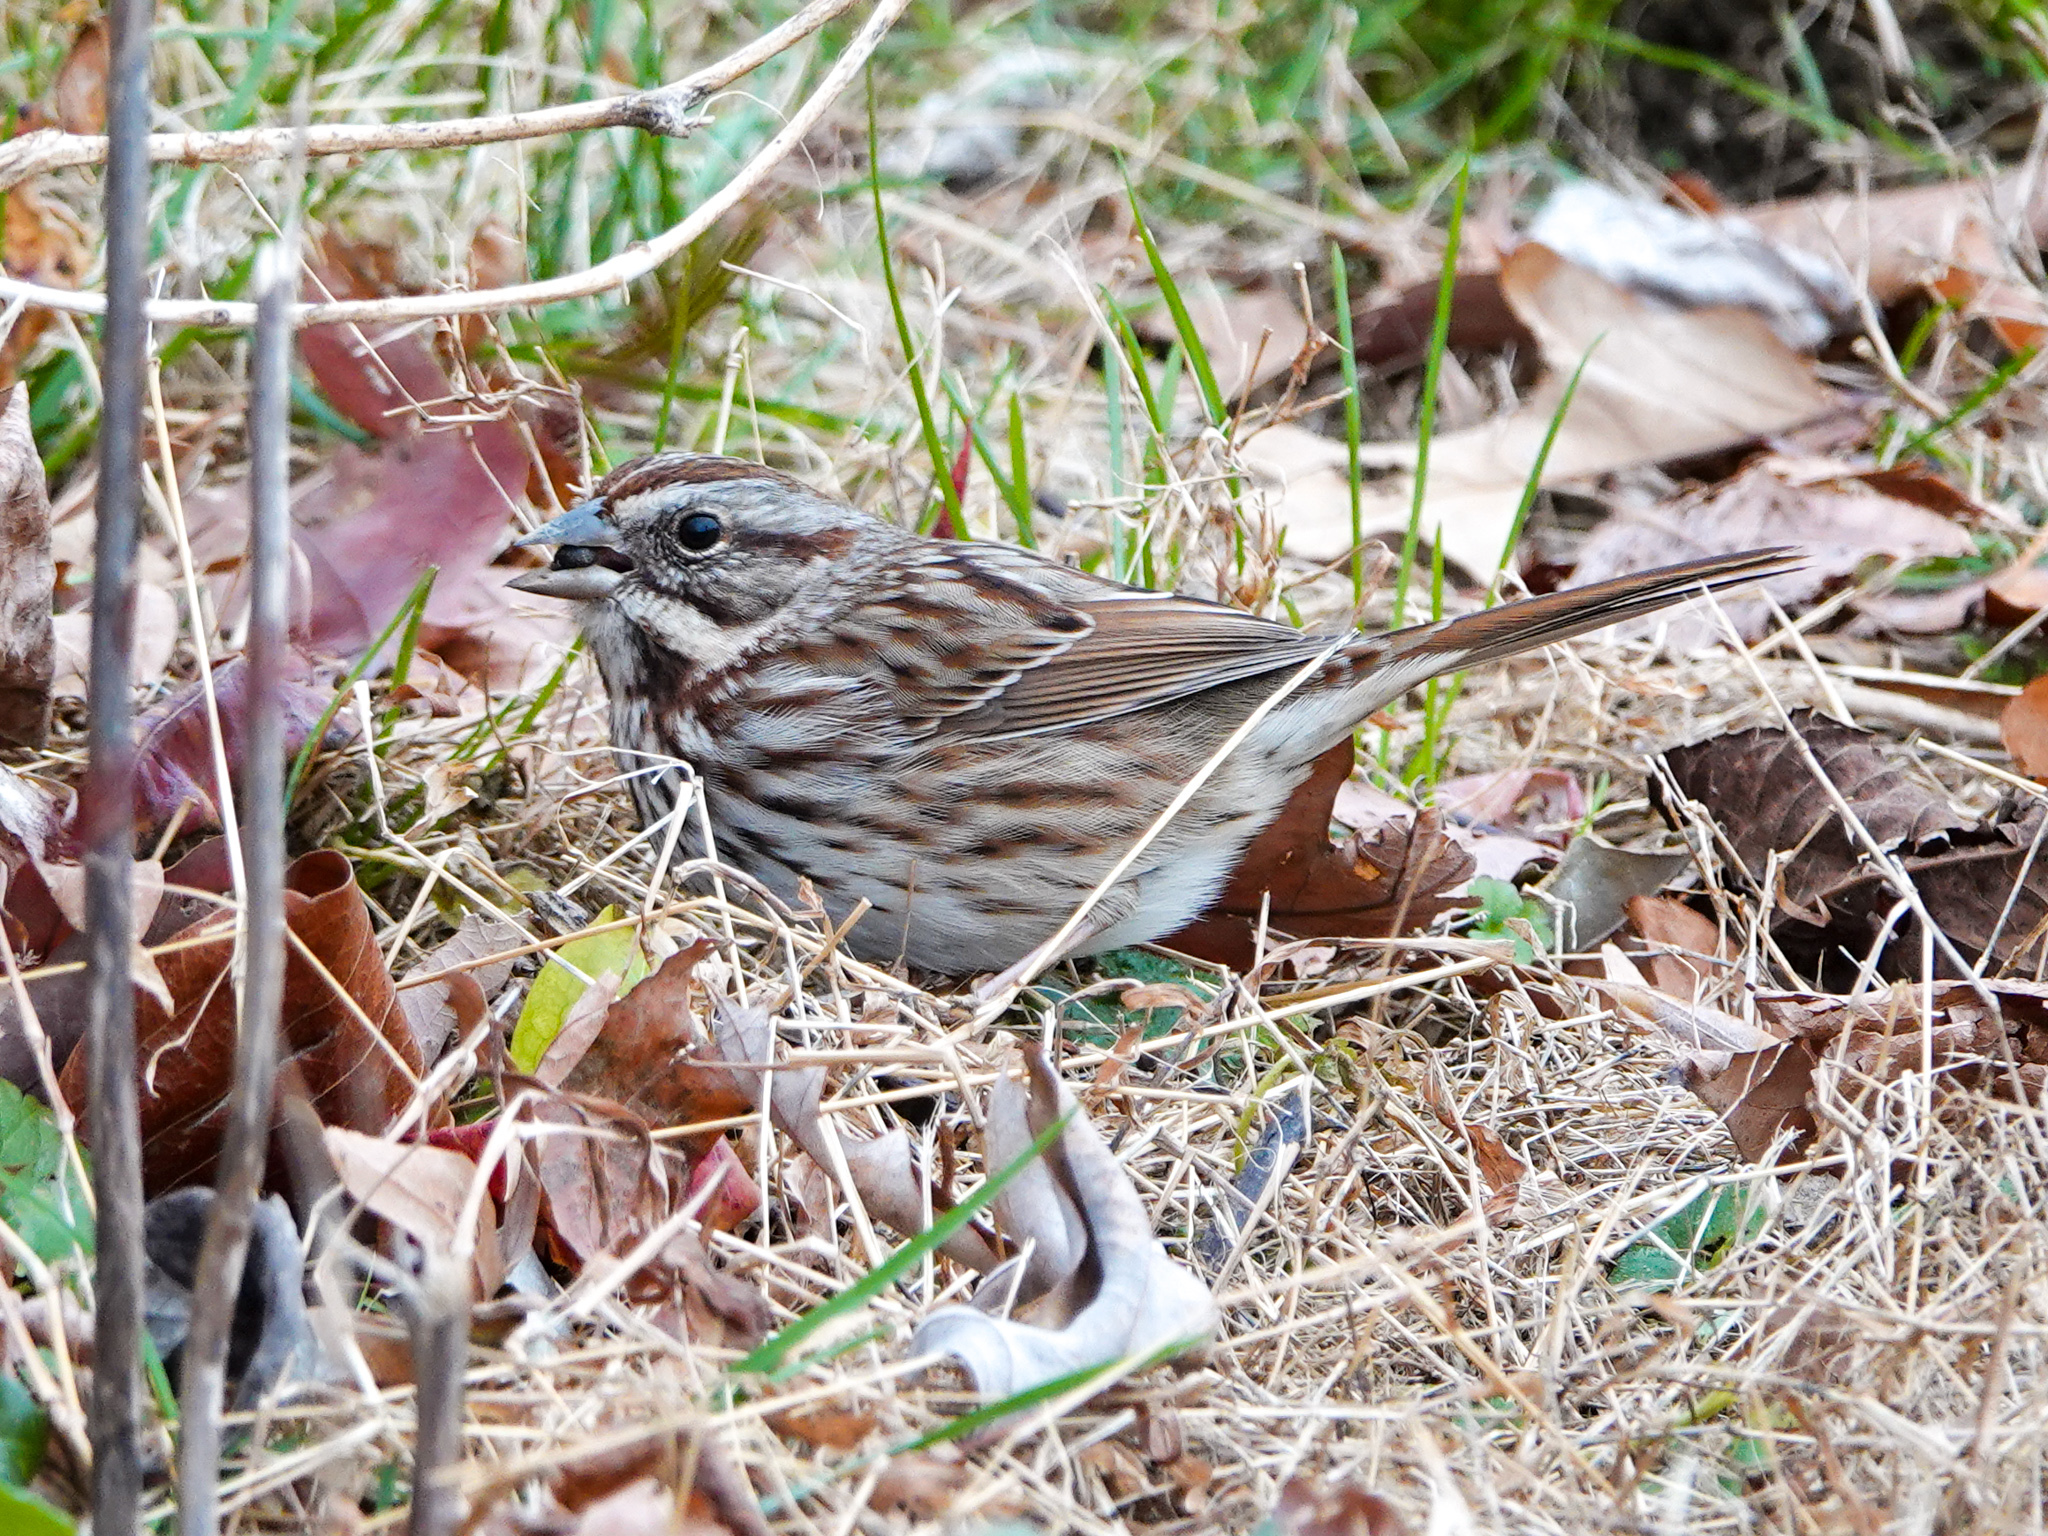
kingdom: Animalia
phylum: Chordata
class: Aves
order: Passeriformes
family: Passerellidae
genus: Melospiza
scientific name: Melospiza melodia
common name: Song sparrow
